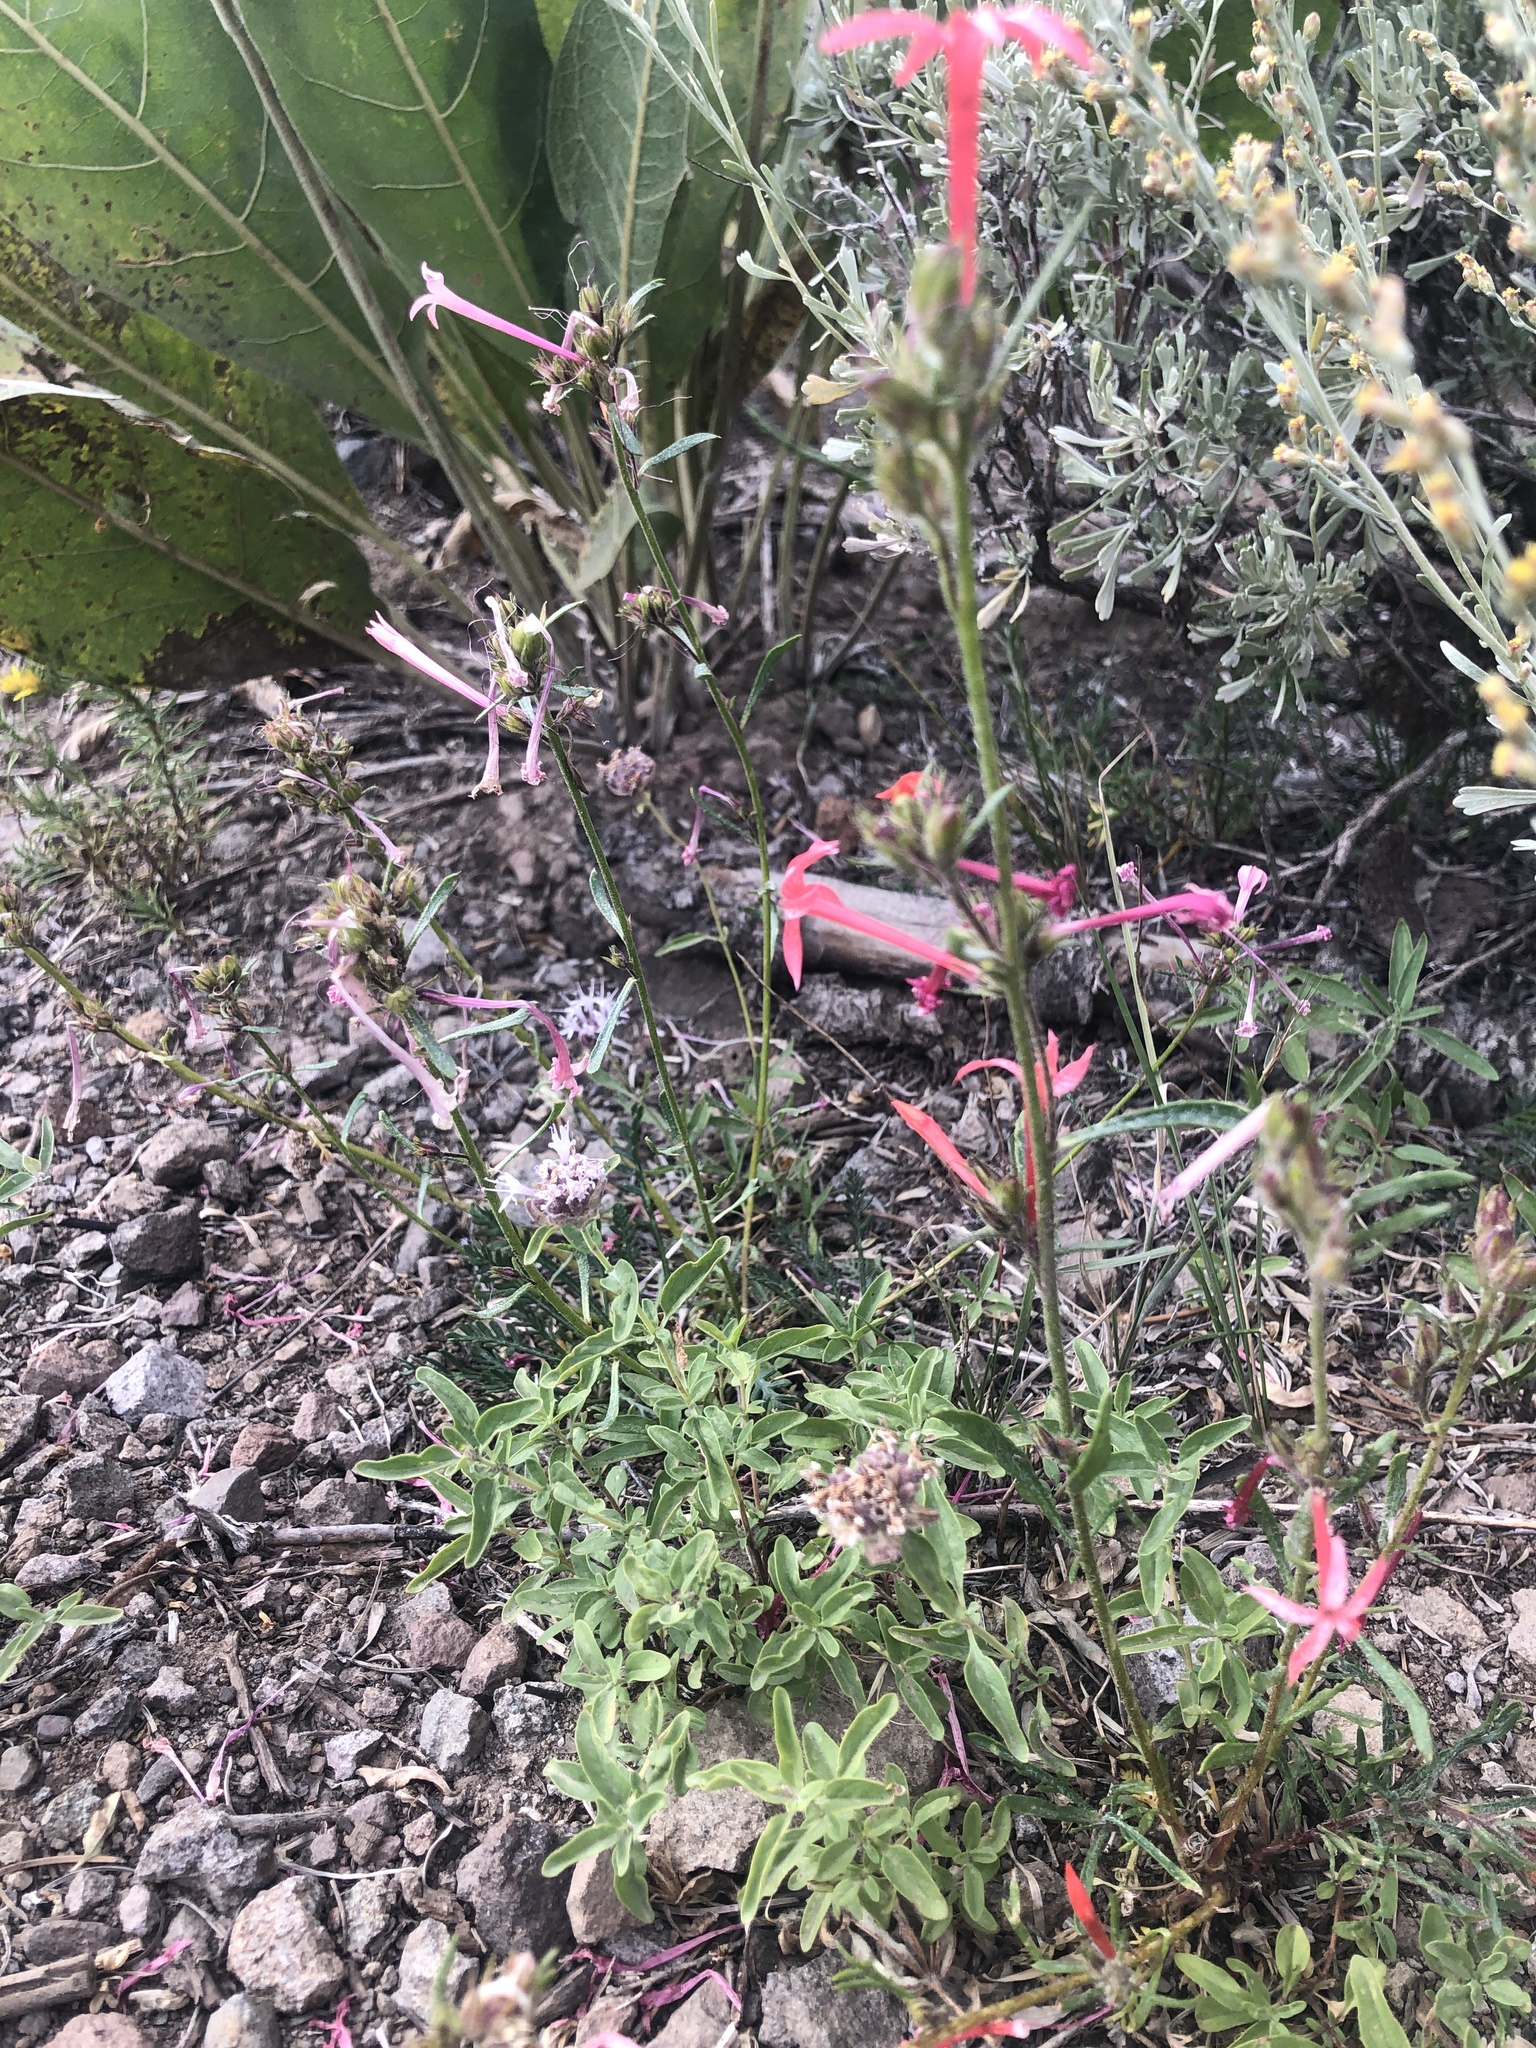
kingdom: Plantae
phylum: Tracheophyta
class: Magnoliopsida
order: Ericales
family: Polemoniaceae
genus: Ipomopsis
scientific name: Ipomopsis tenuituba
